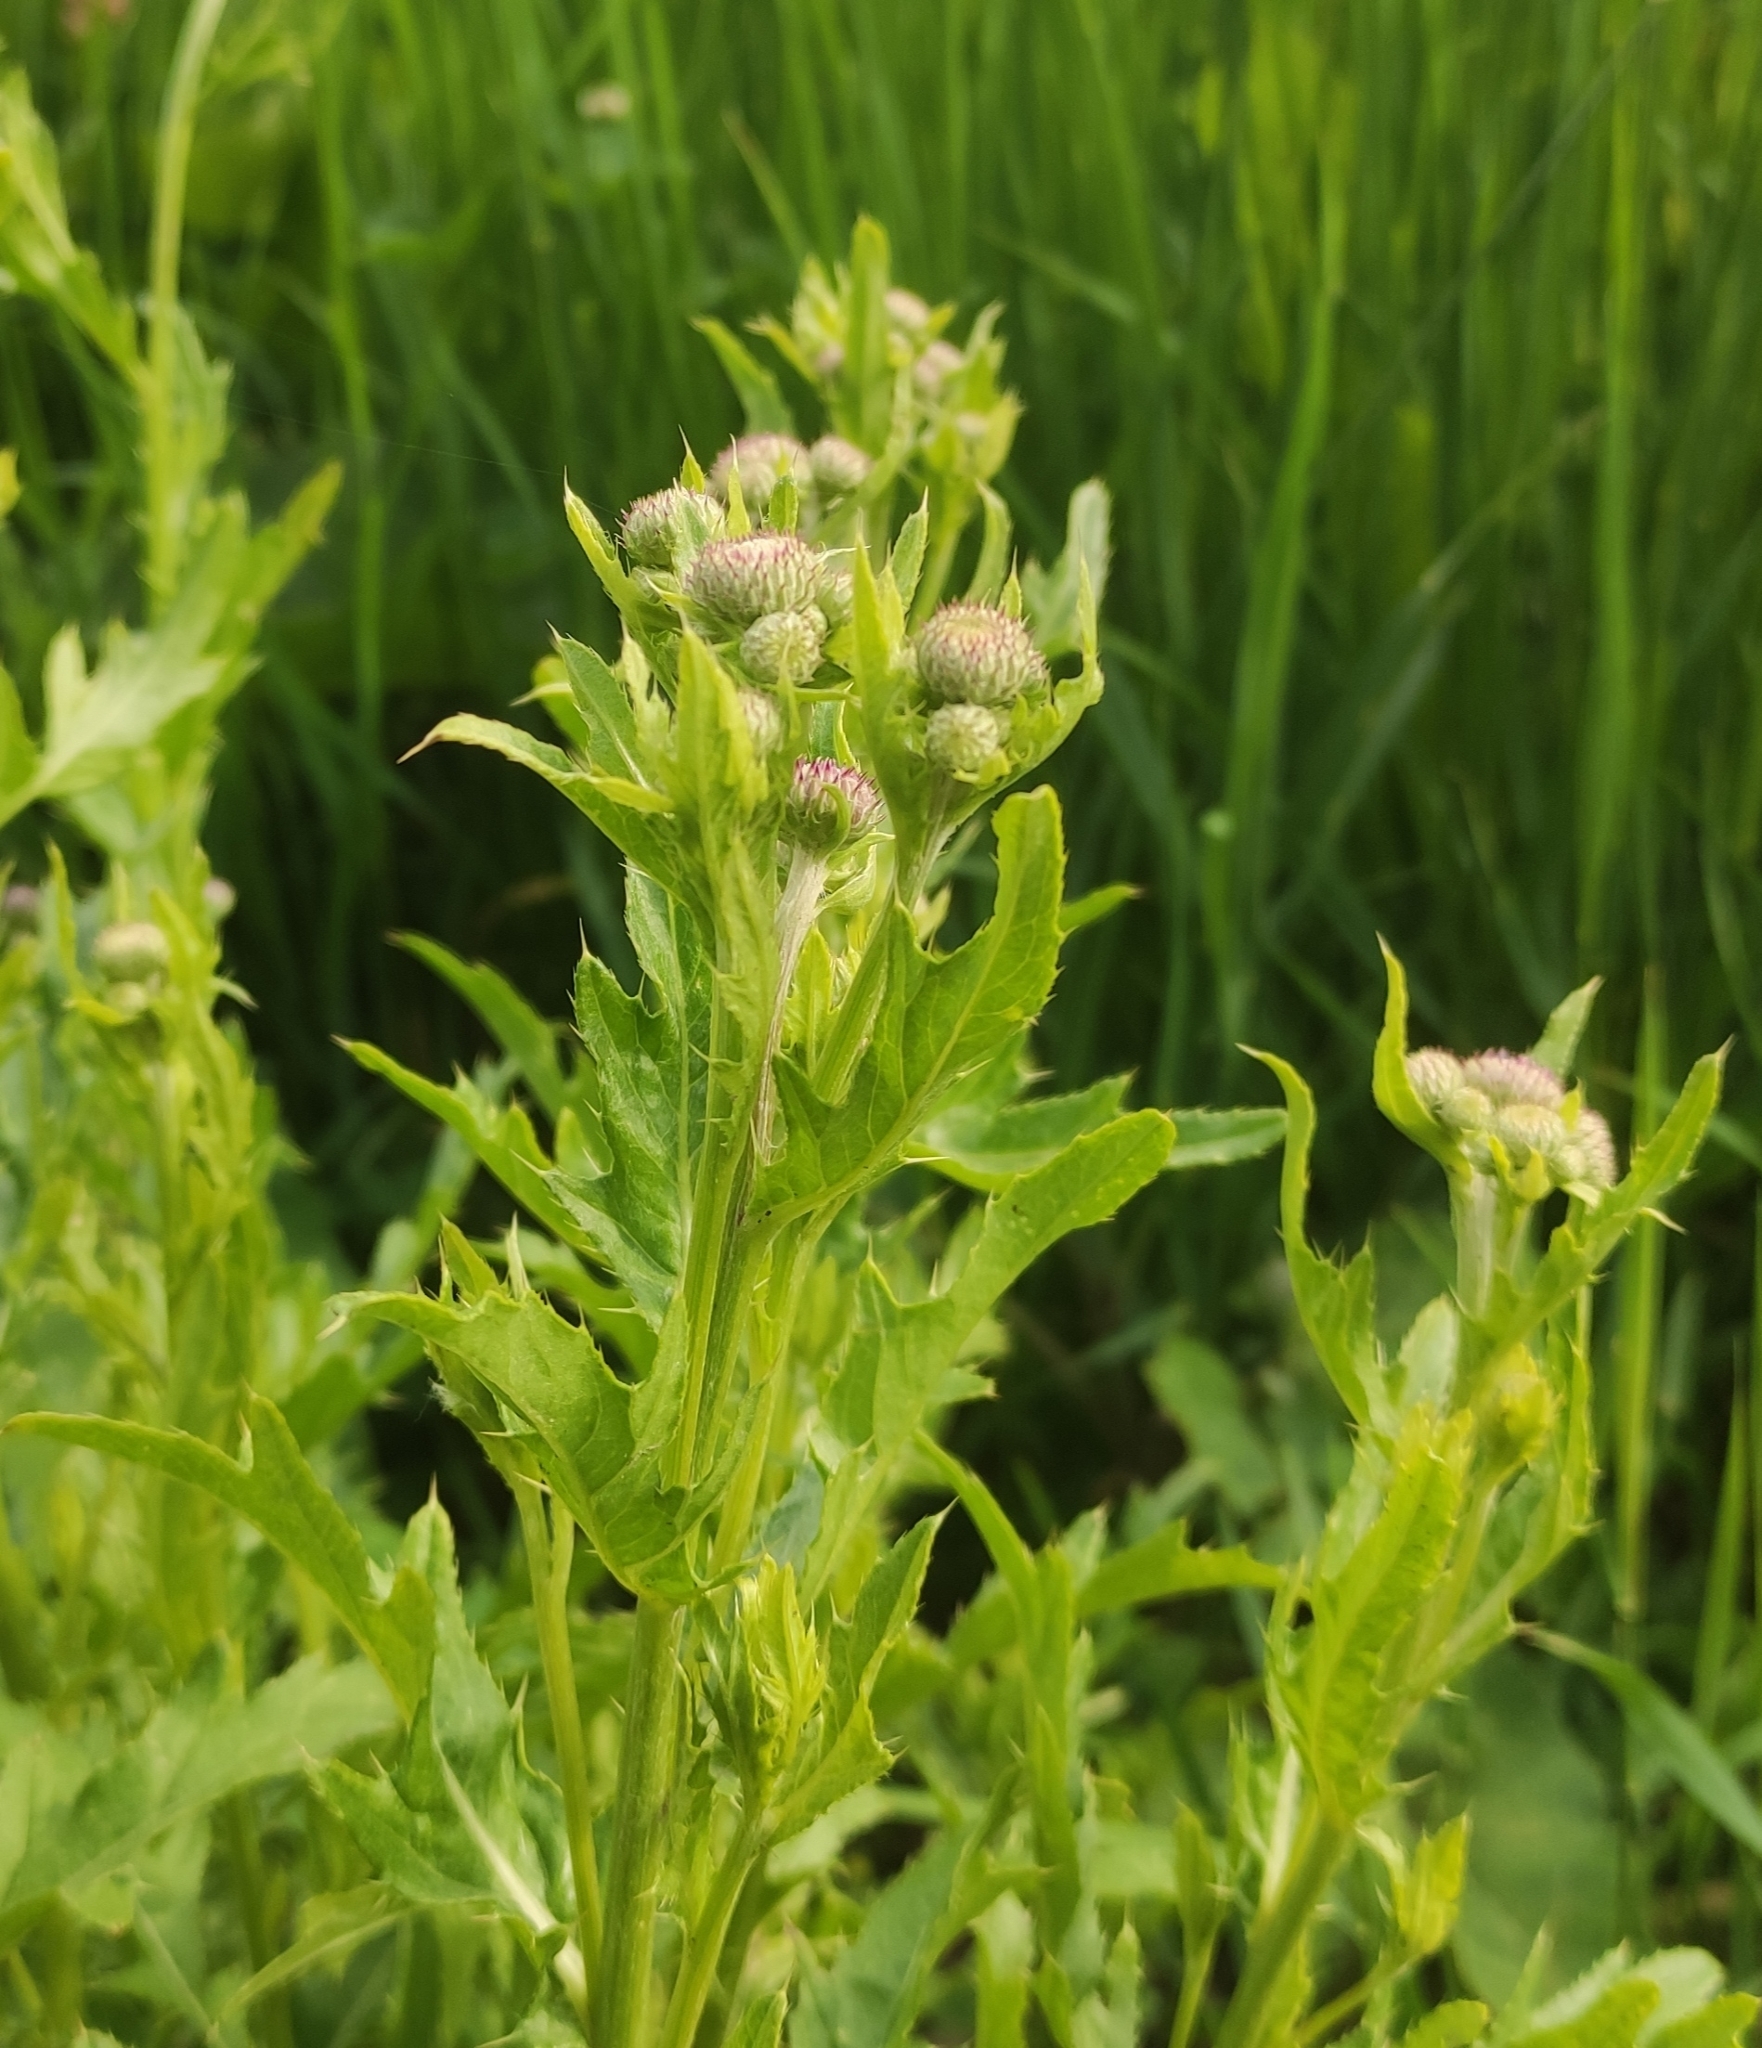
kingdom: Plantae
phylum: Tracheophyta
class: Magnoliopsida
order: Asterales
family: Asteraceae
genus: Cirsium
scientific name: Cirsium arvense
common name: Creeping thistle
